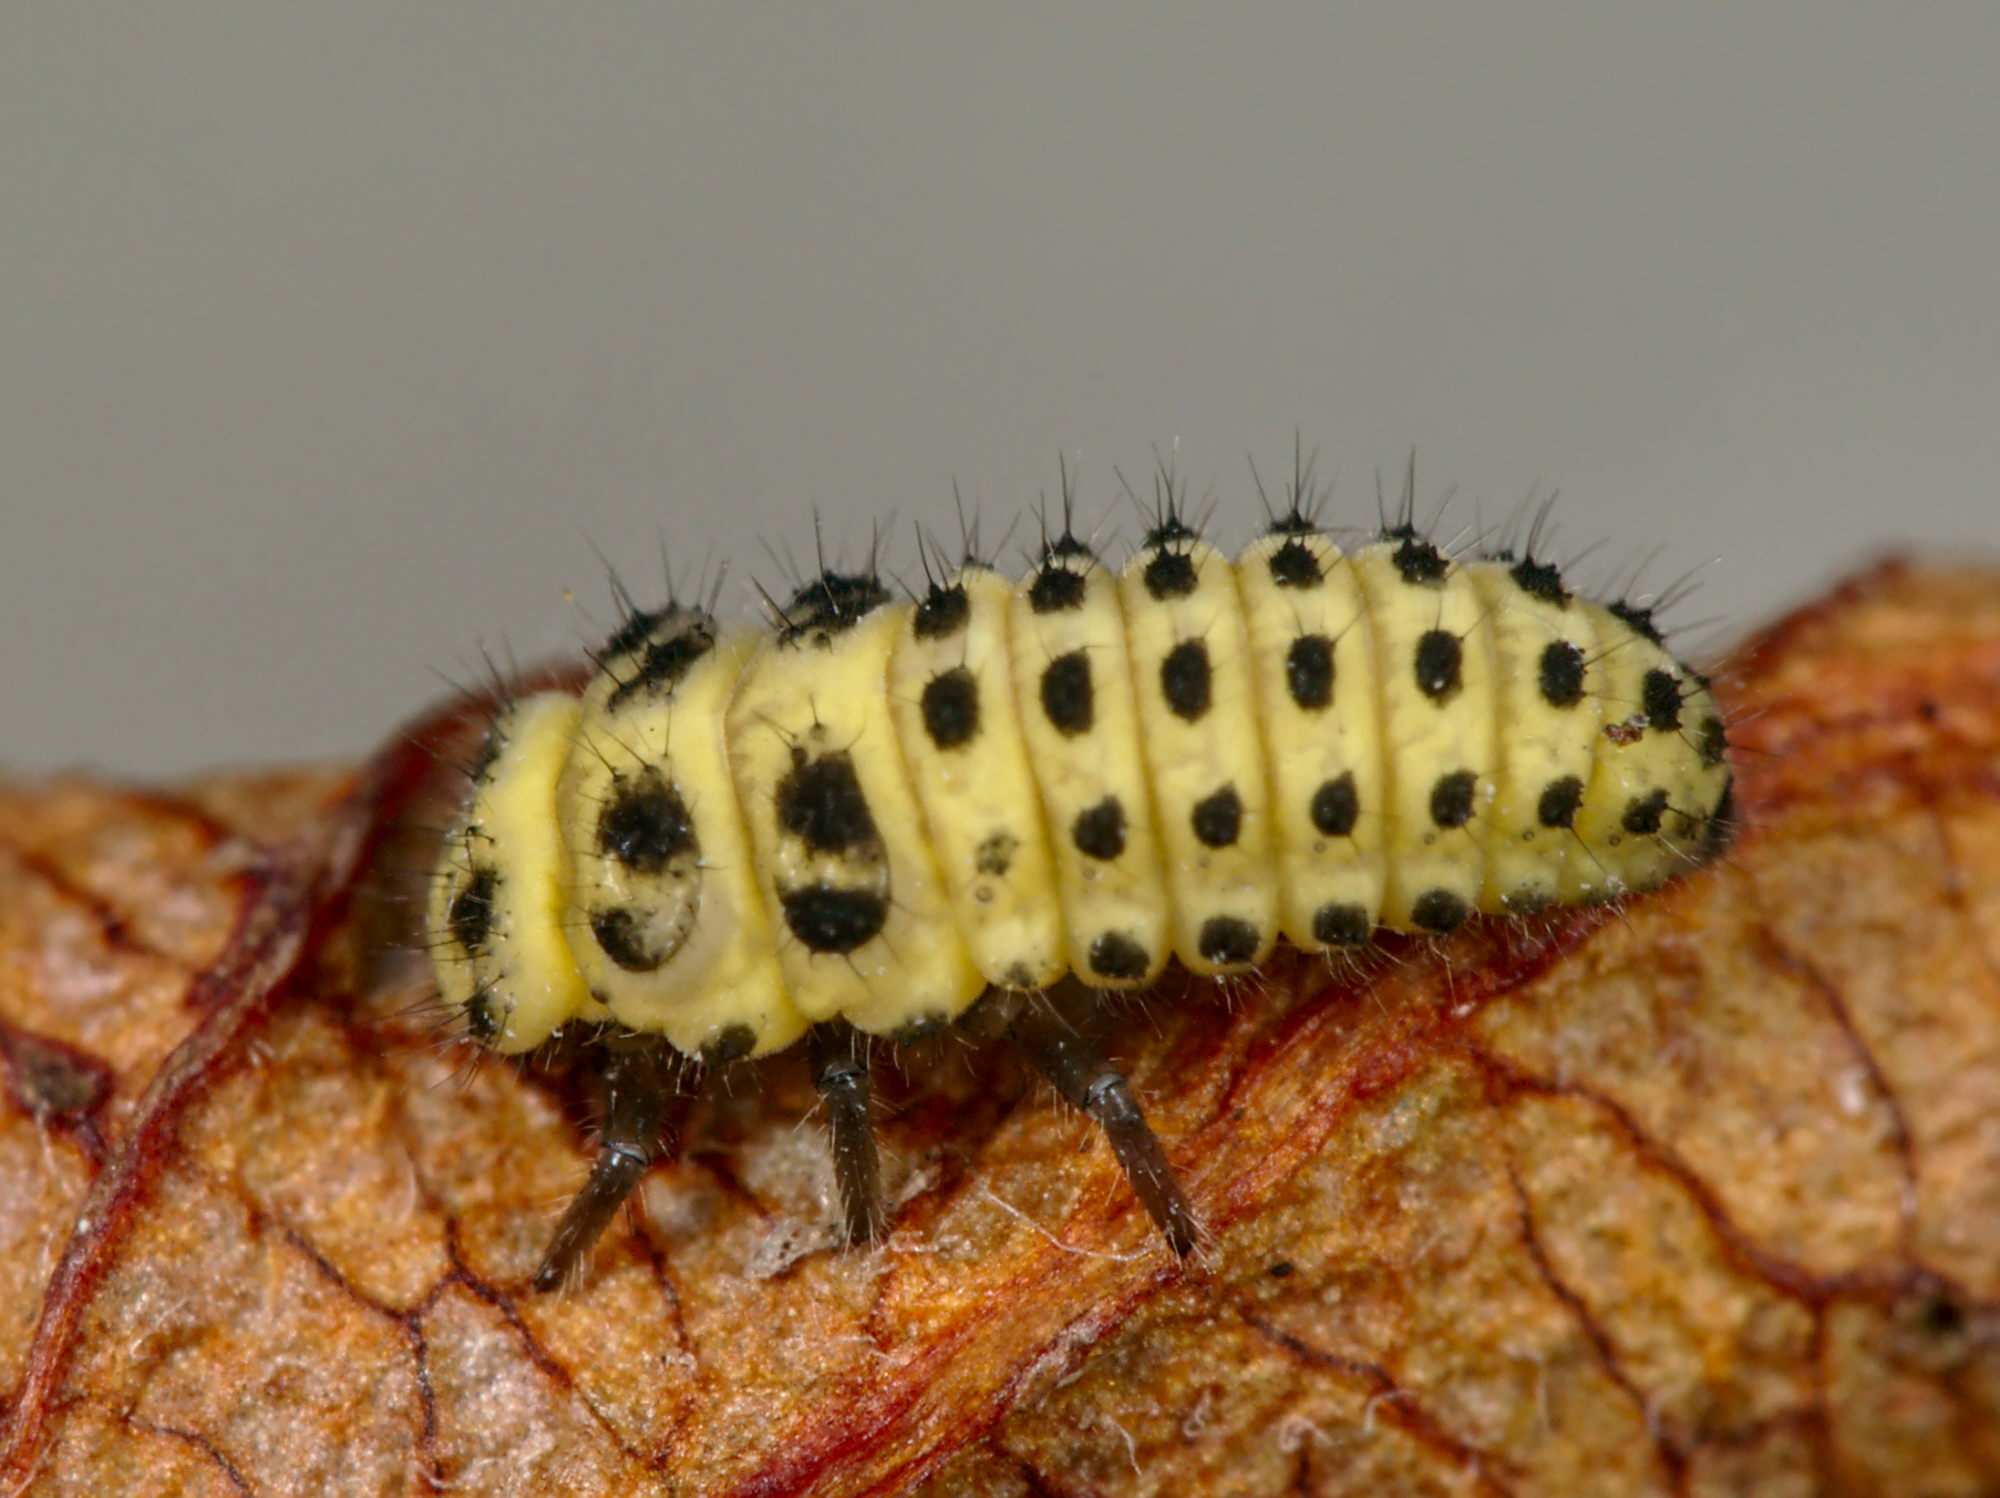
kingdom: Animalia
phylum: Arthropoda
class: Insecta
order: Coleoptera
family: Coccinellidae
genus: Psyllobora
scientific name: Psyllobora vigintiduopunctata
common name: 22-spot ladybird
